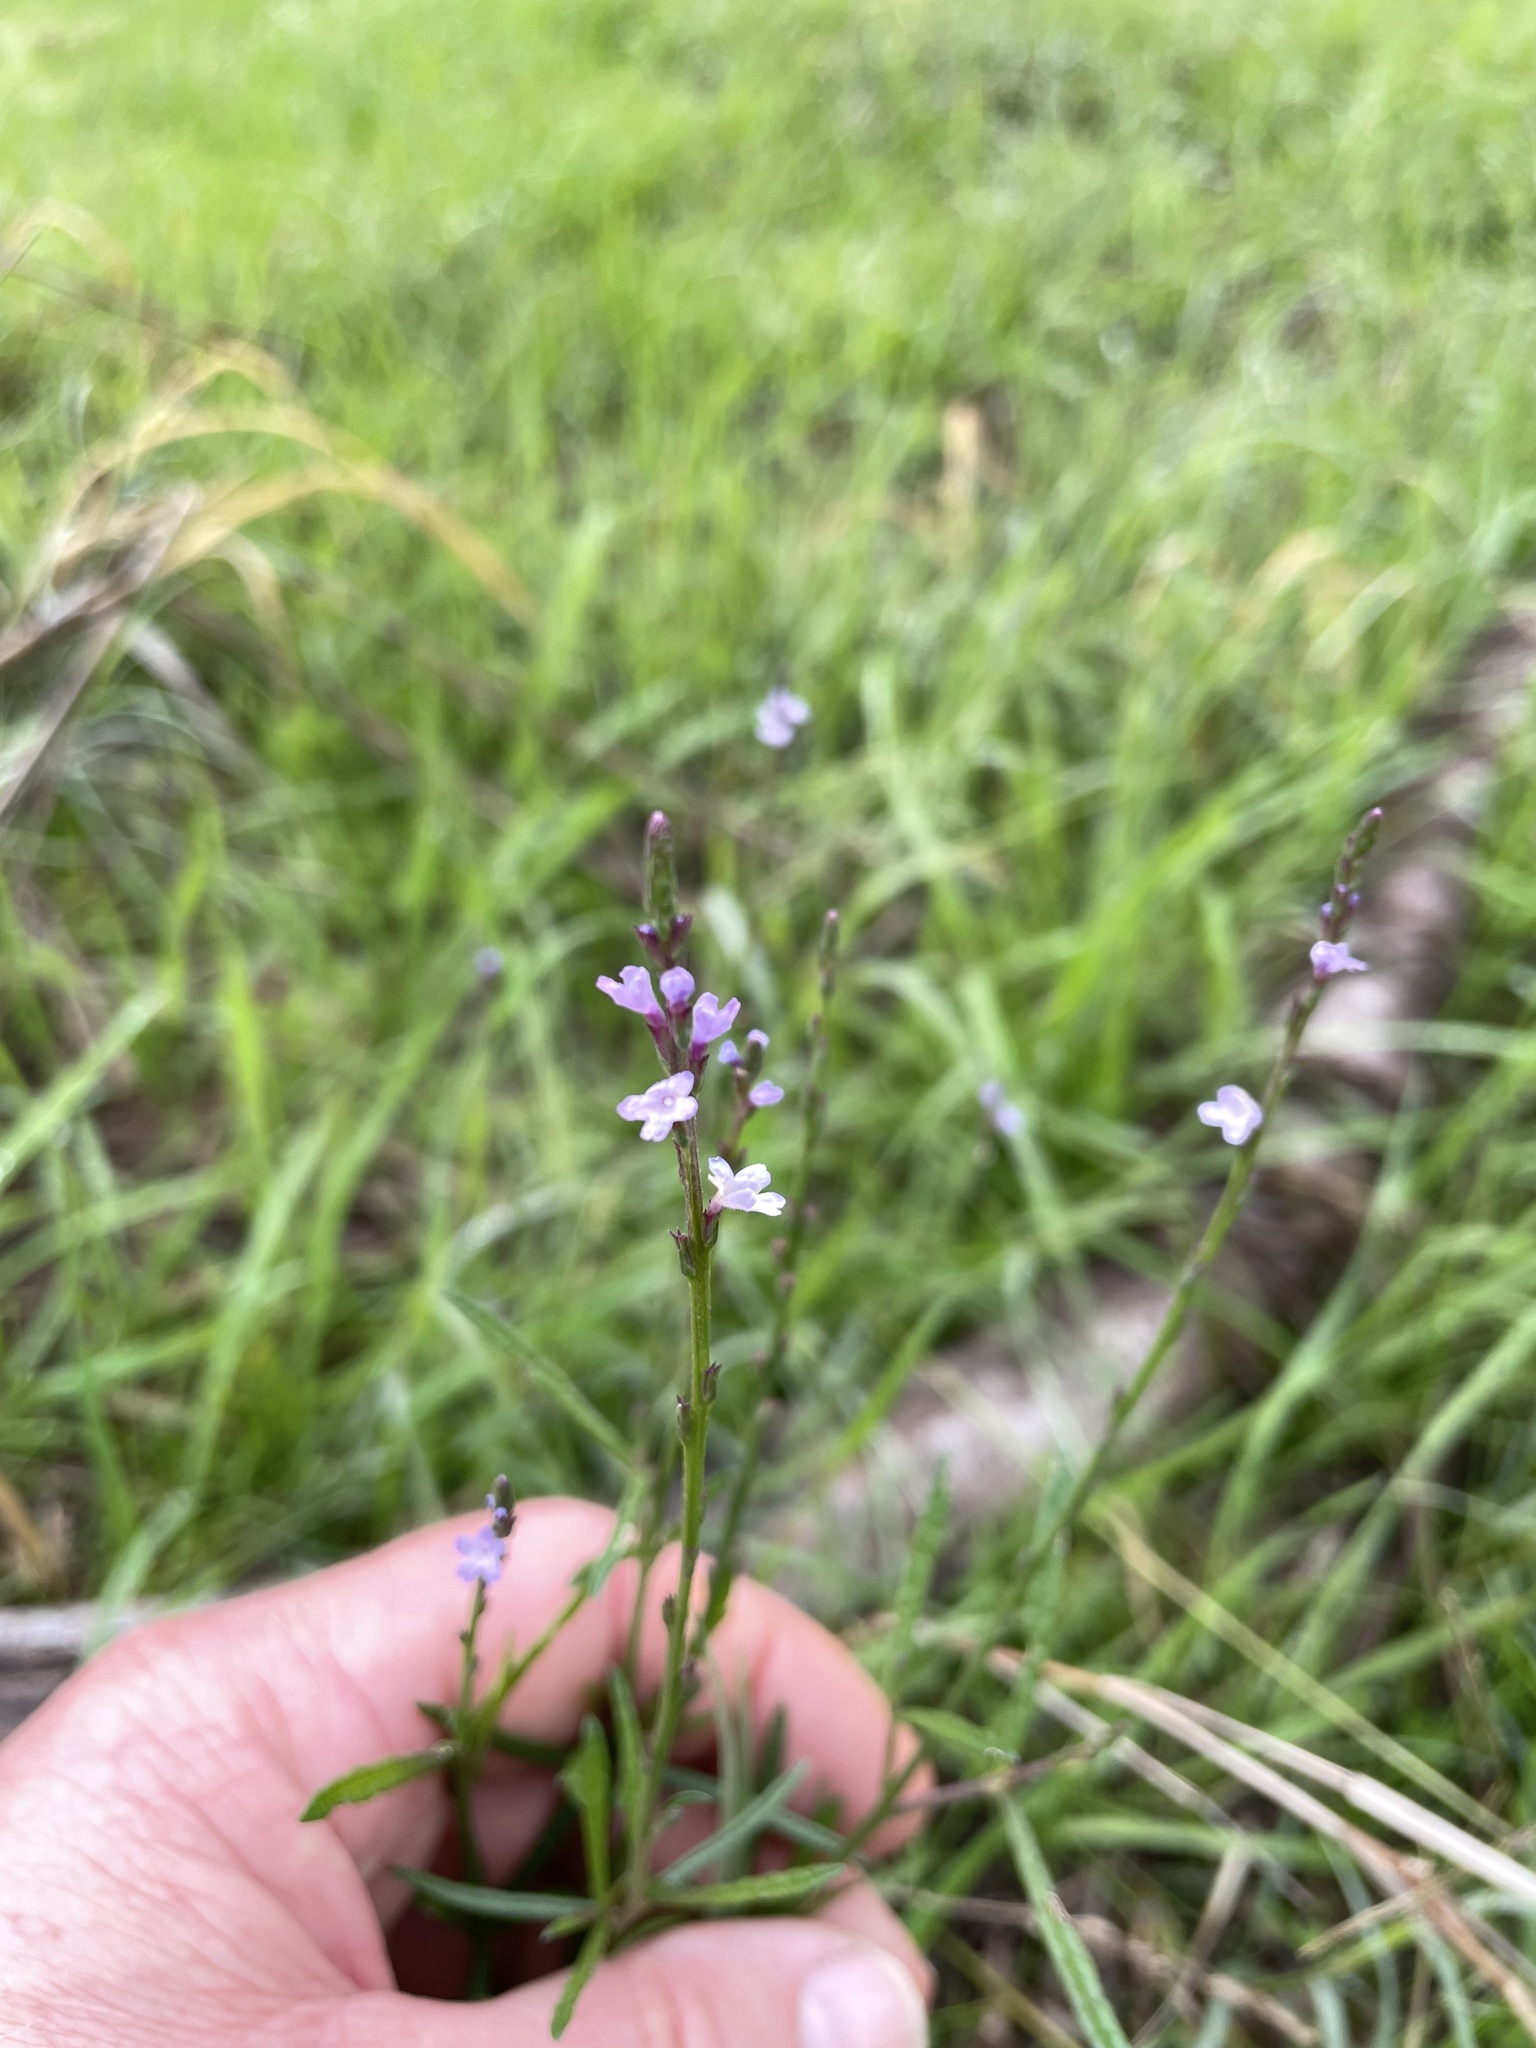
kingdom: Plantae
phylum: Tracheophyta
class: Magnoliopsida
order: Lamiales
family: Verbenaceae
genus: Verbena
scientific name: Verbena halei
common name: Texas vervain
